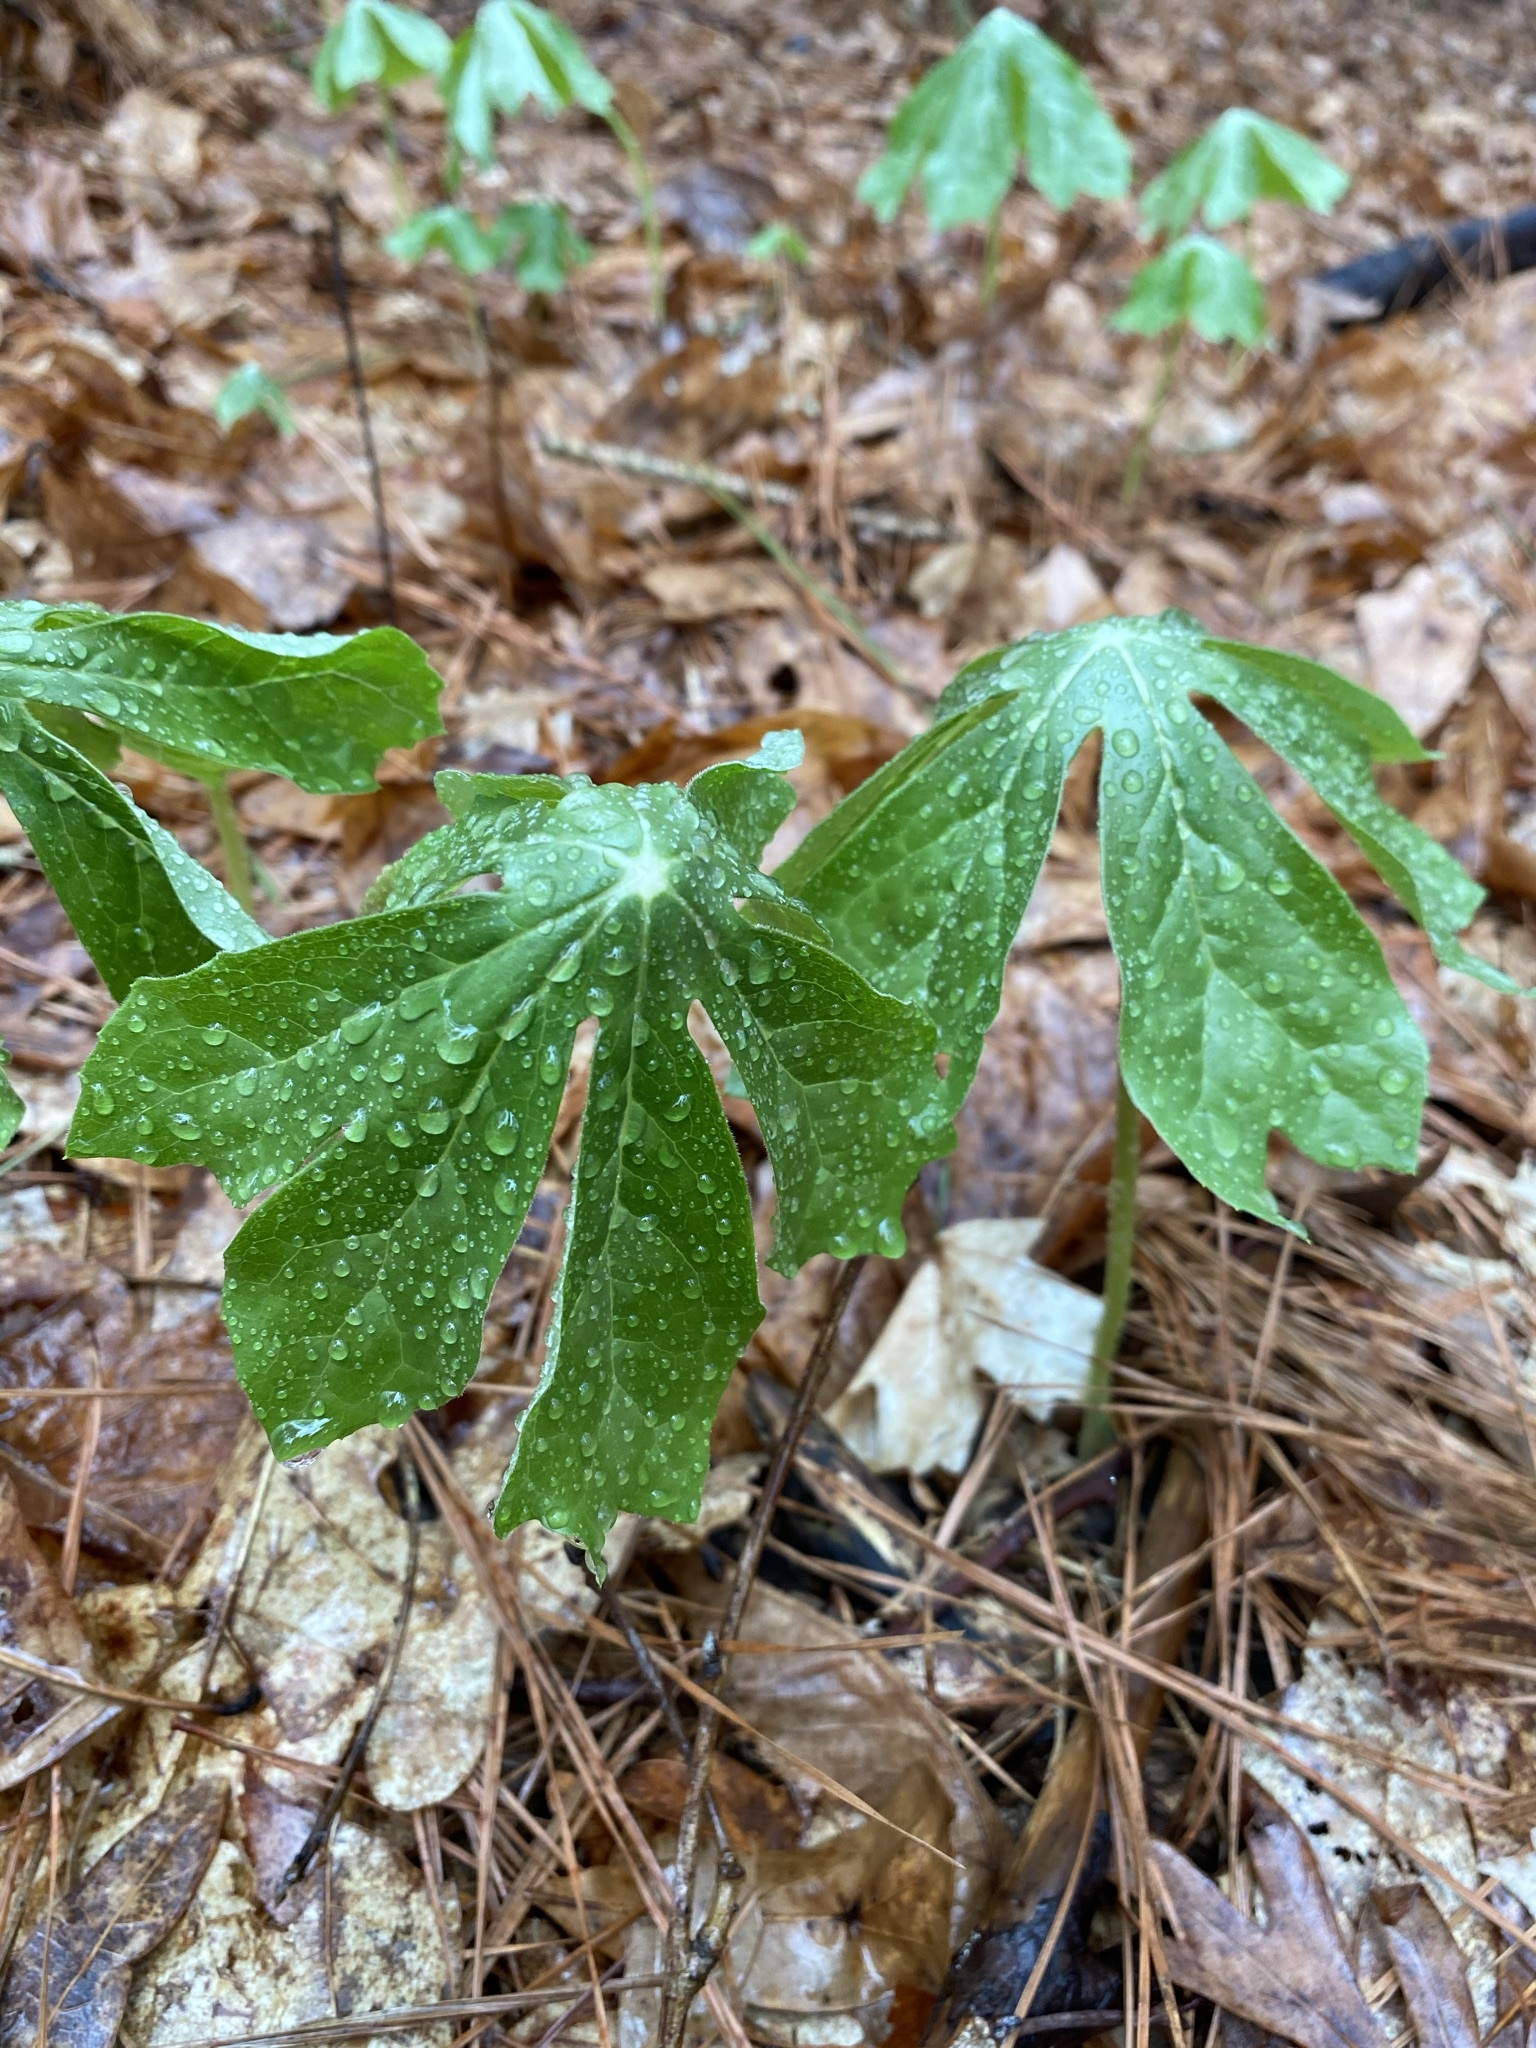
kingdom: Plantae
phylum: Tracheophyta
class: Magnoliopsida
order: Ranunculales
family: Berberidaceae
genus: Podophyllum
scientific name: Podophyllum peltatum
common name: Wild mandrake
